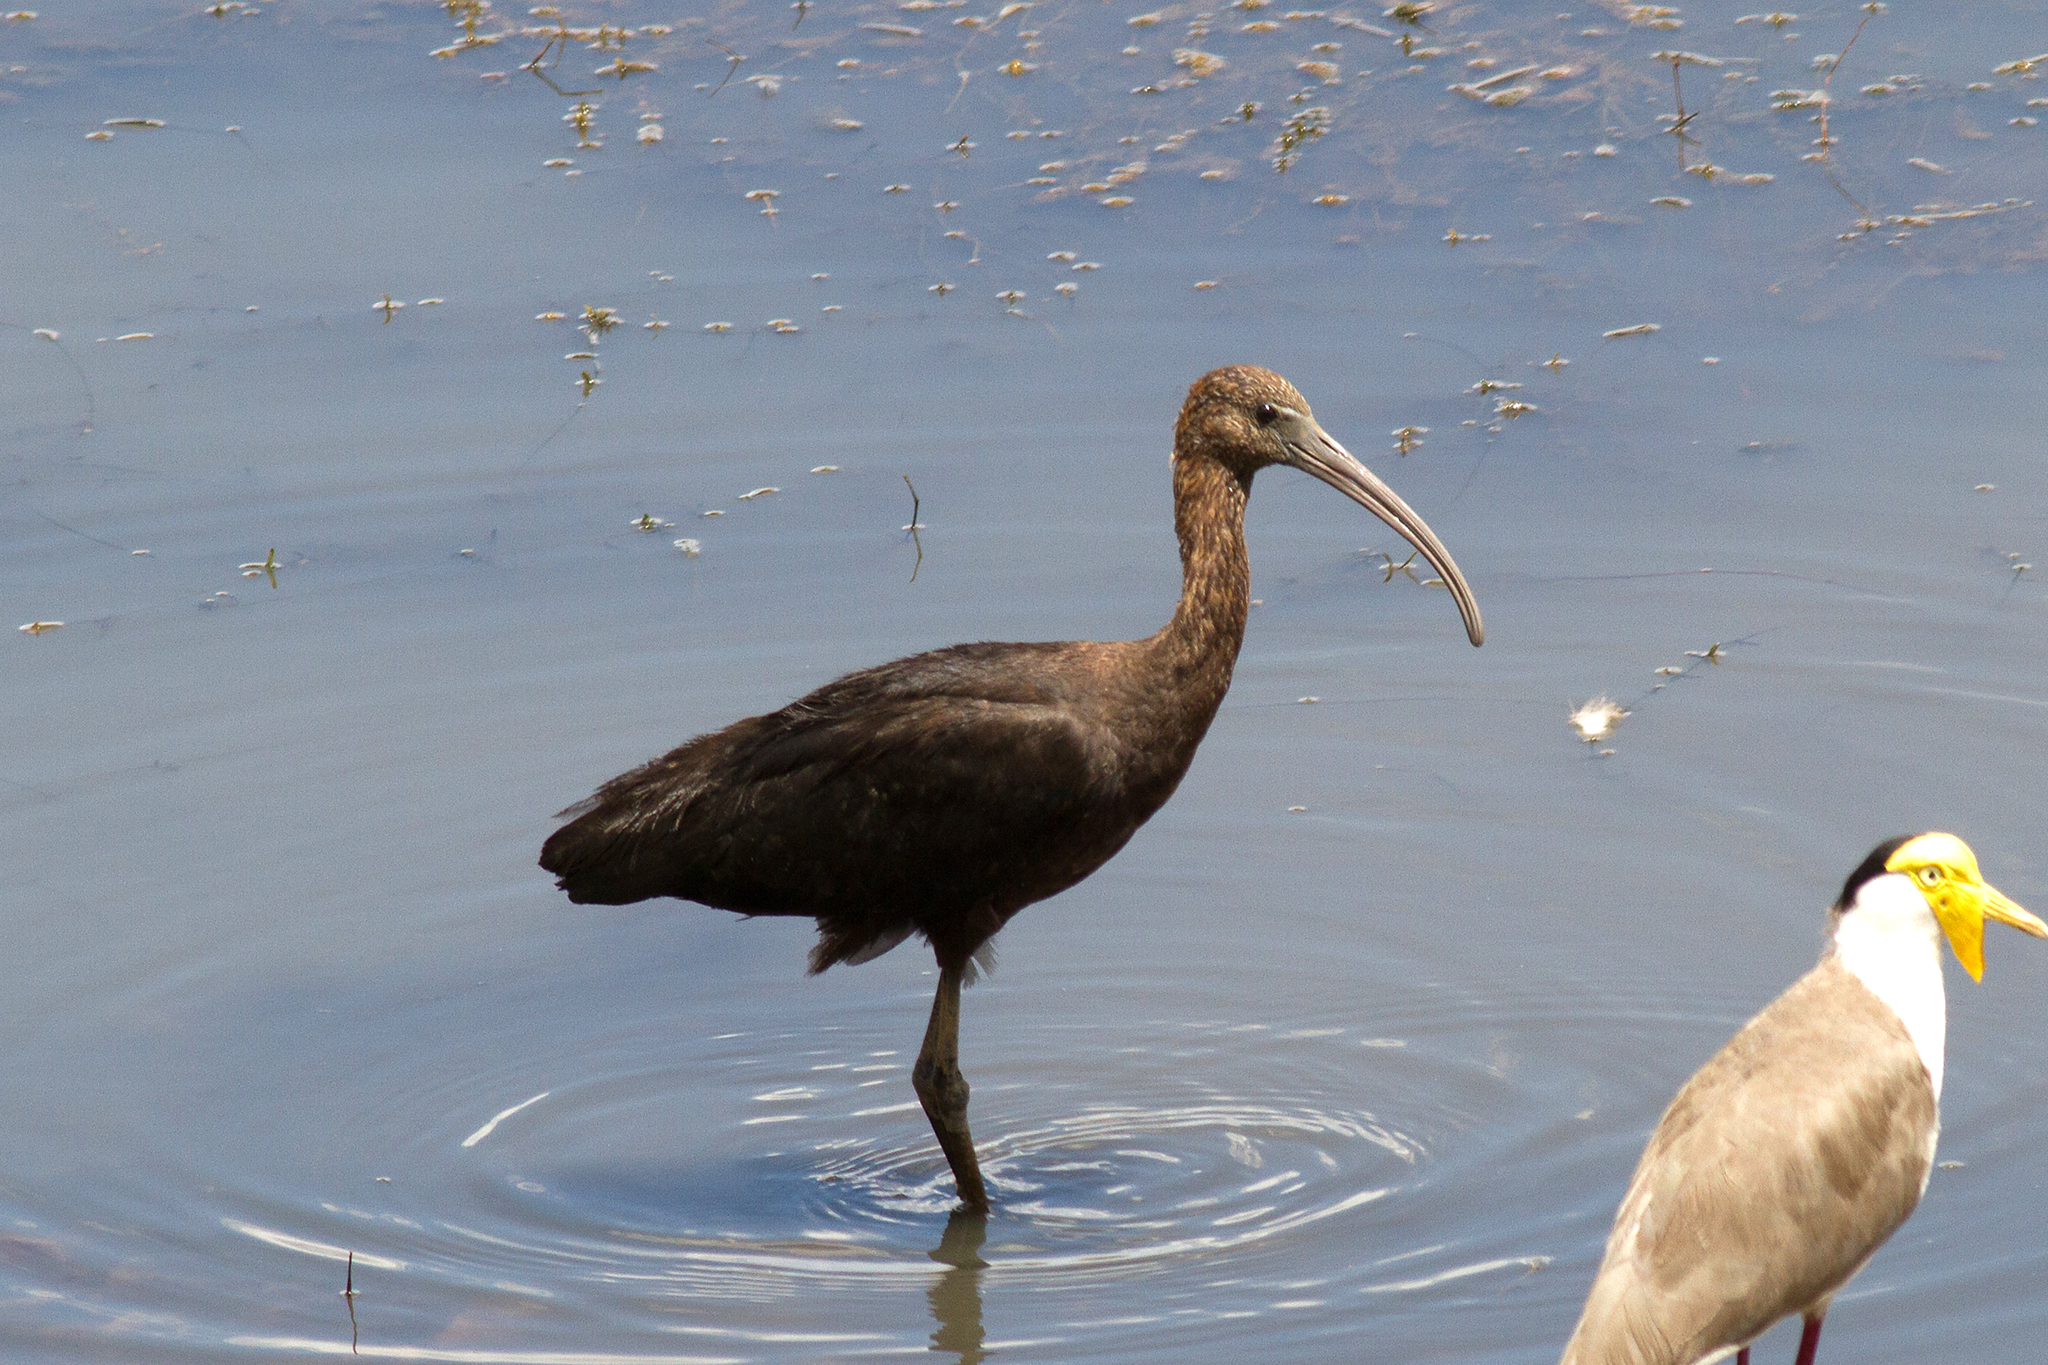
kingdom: Animalia
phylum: Chordata
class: Aves
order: Pelecaniformes
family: Threskiornithidae
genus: Plegadis
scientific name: Plegadis falcinellus
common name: Glossy ibis
